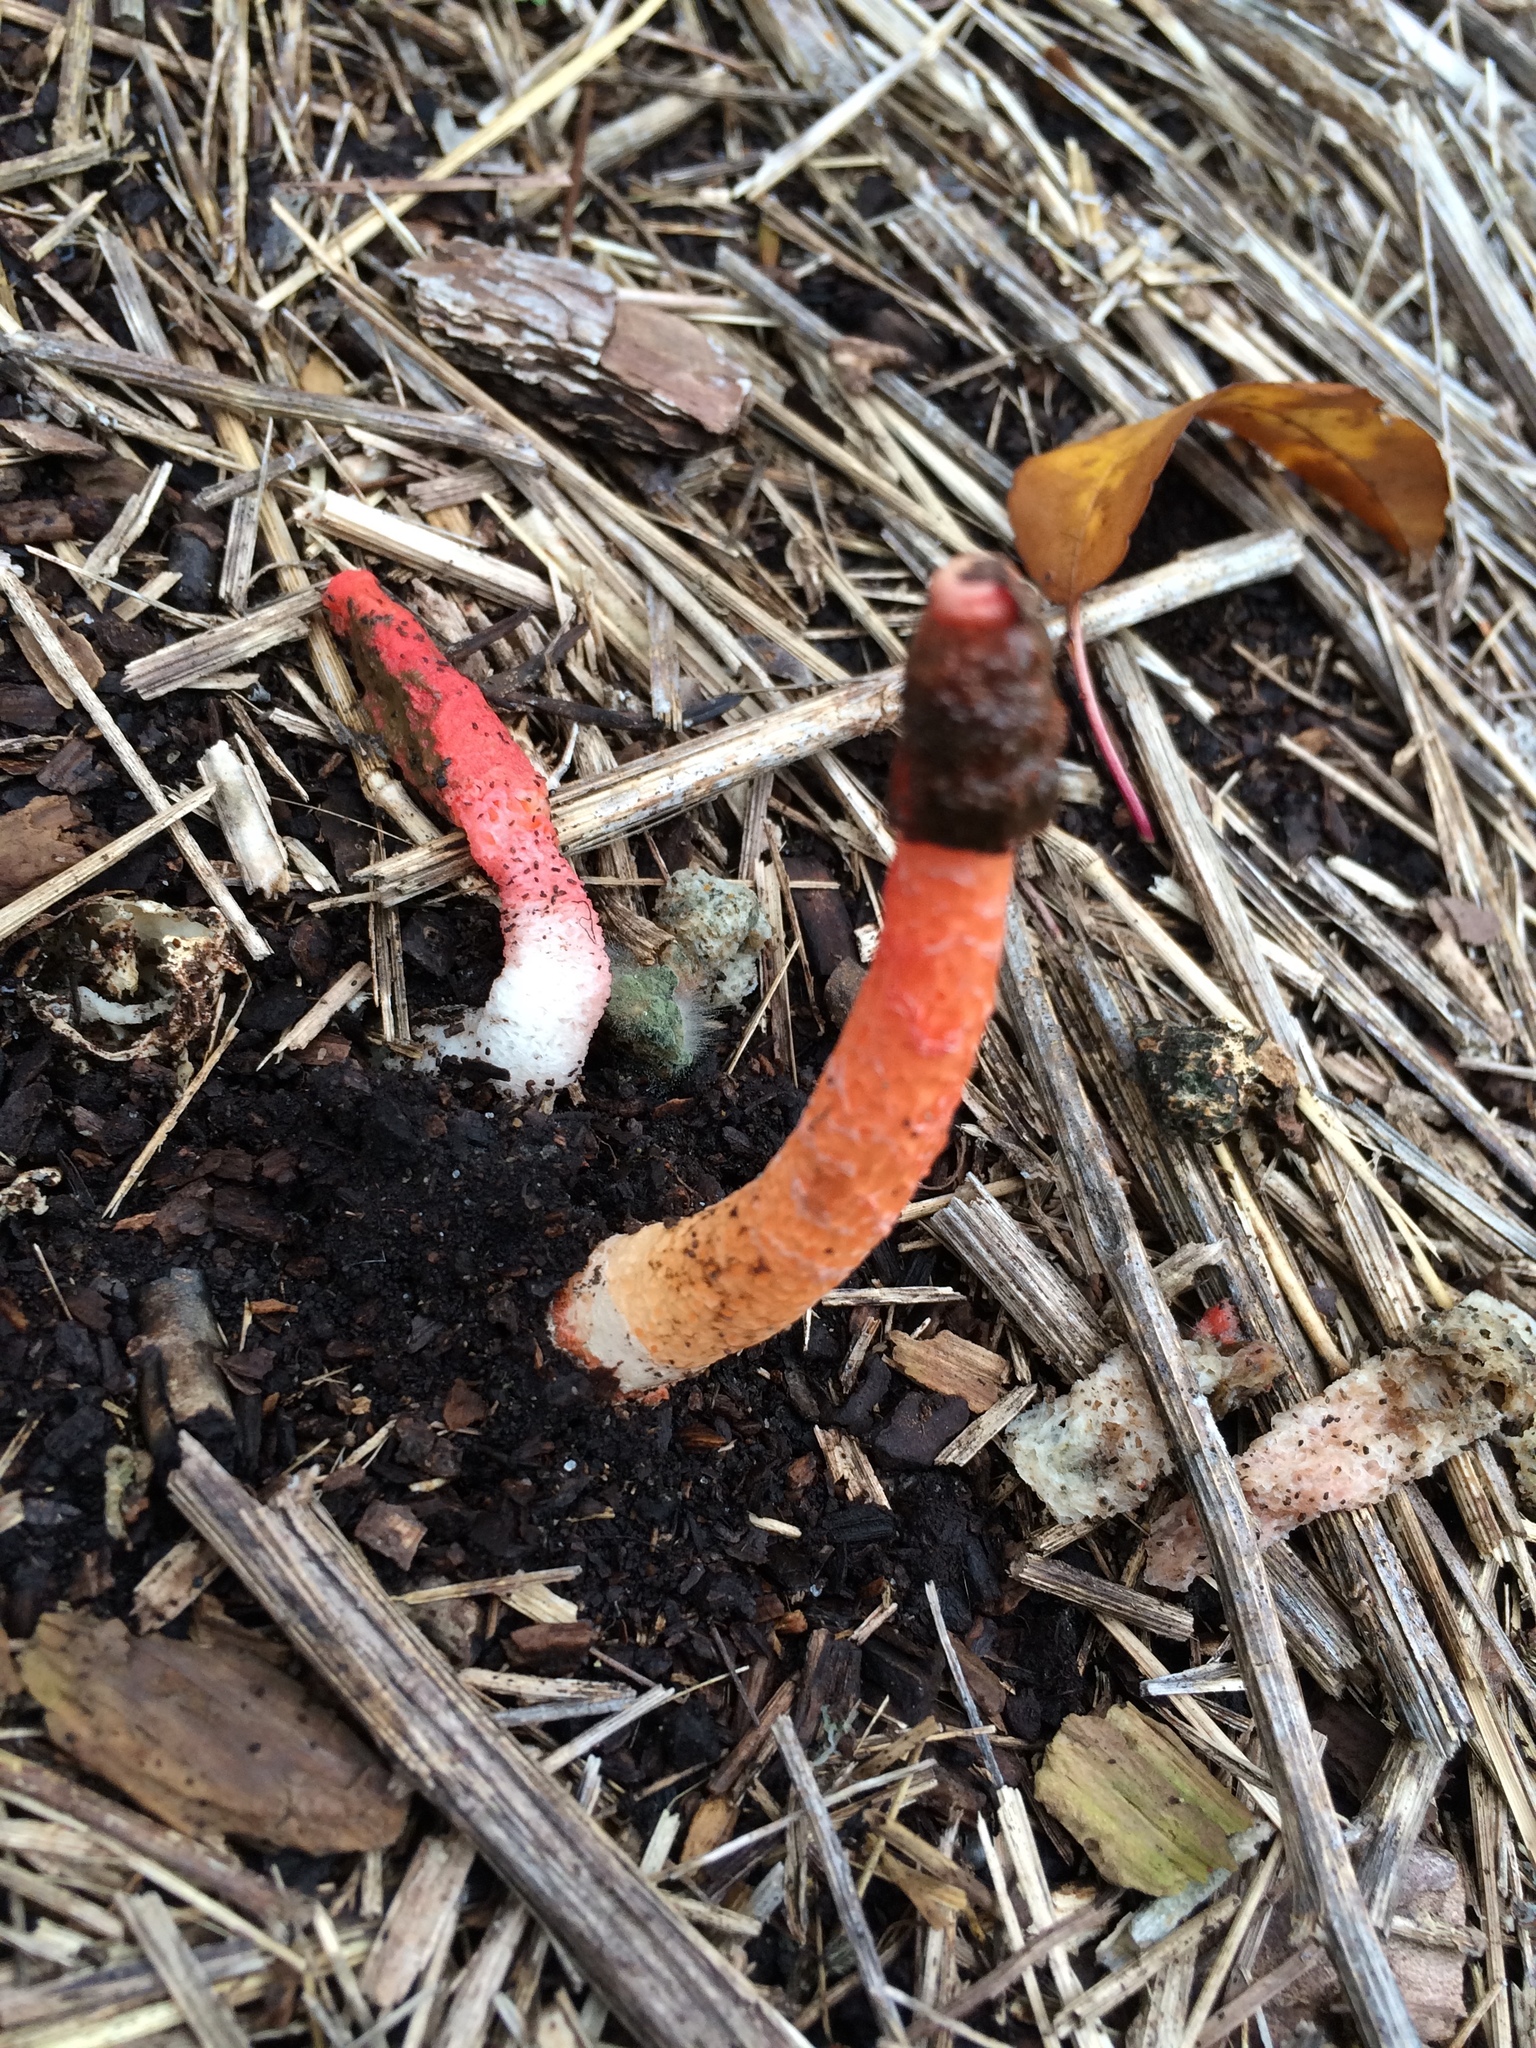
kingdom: Fungi
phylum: Basidiomycota
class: Agaricomycetes
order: Phallales
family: Phallaceae
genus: Phallus
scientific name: Phallus rugulosus
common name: Wrinkly stinkhorn
